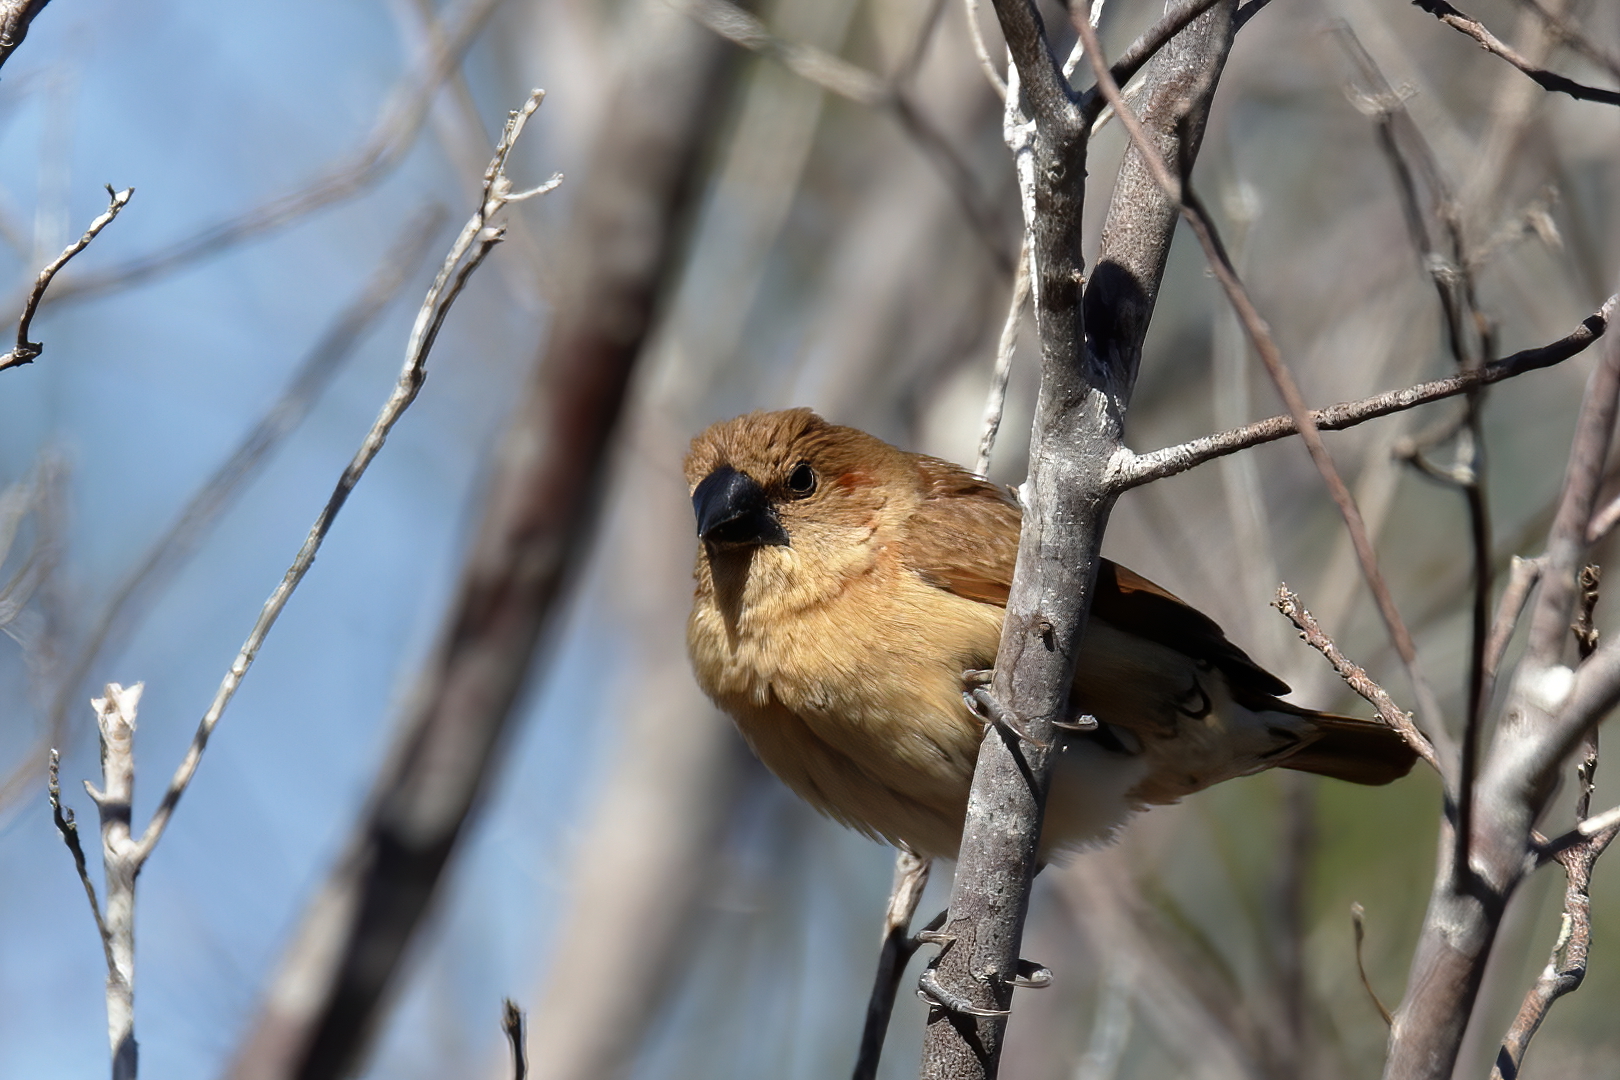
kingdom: Animalia
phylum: Chordata
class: Aves
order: Passeriformes
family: Estrildidae
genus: Lonchura
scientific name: Lonchura punctulata
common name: Scaly-breasted munia
